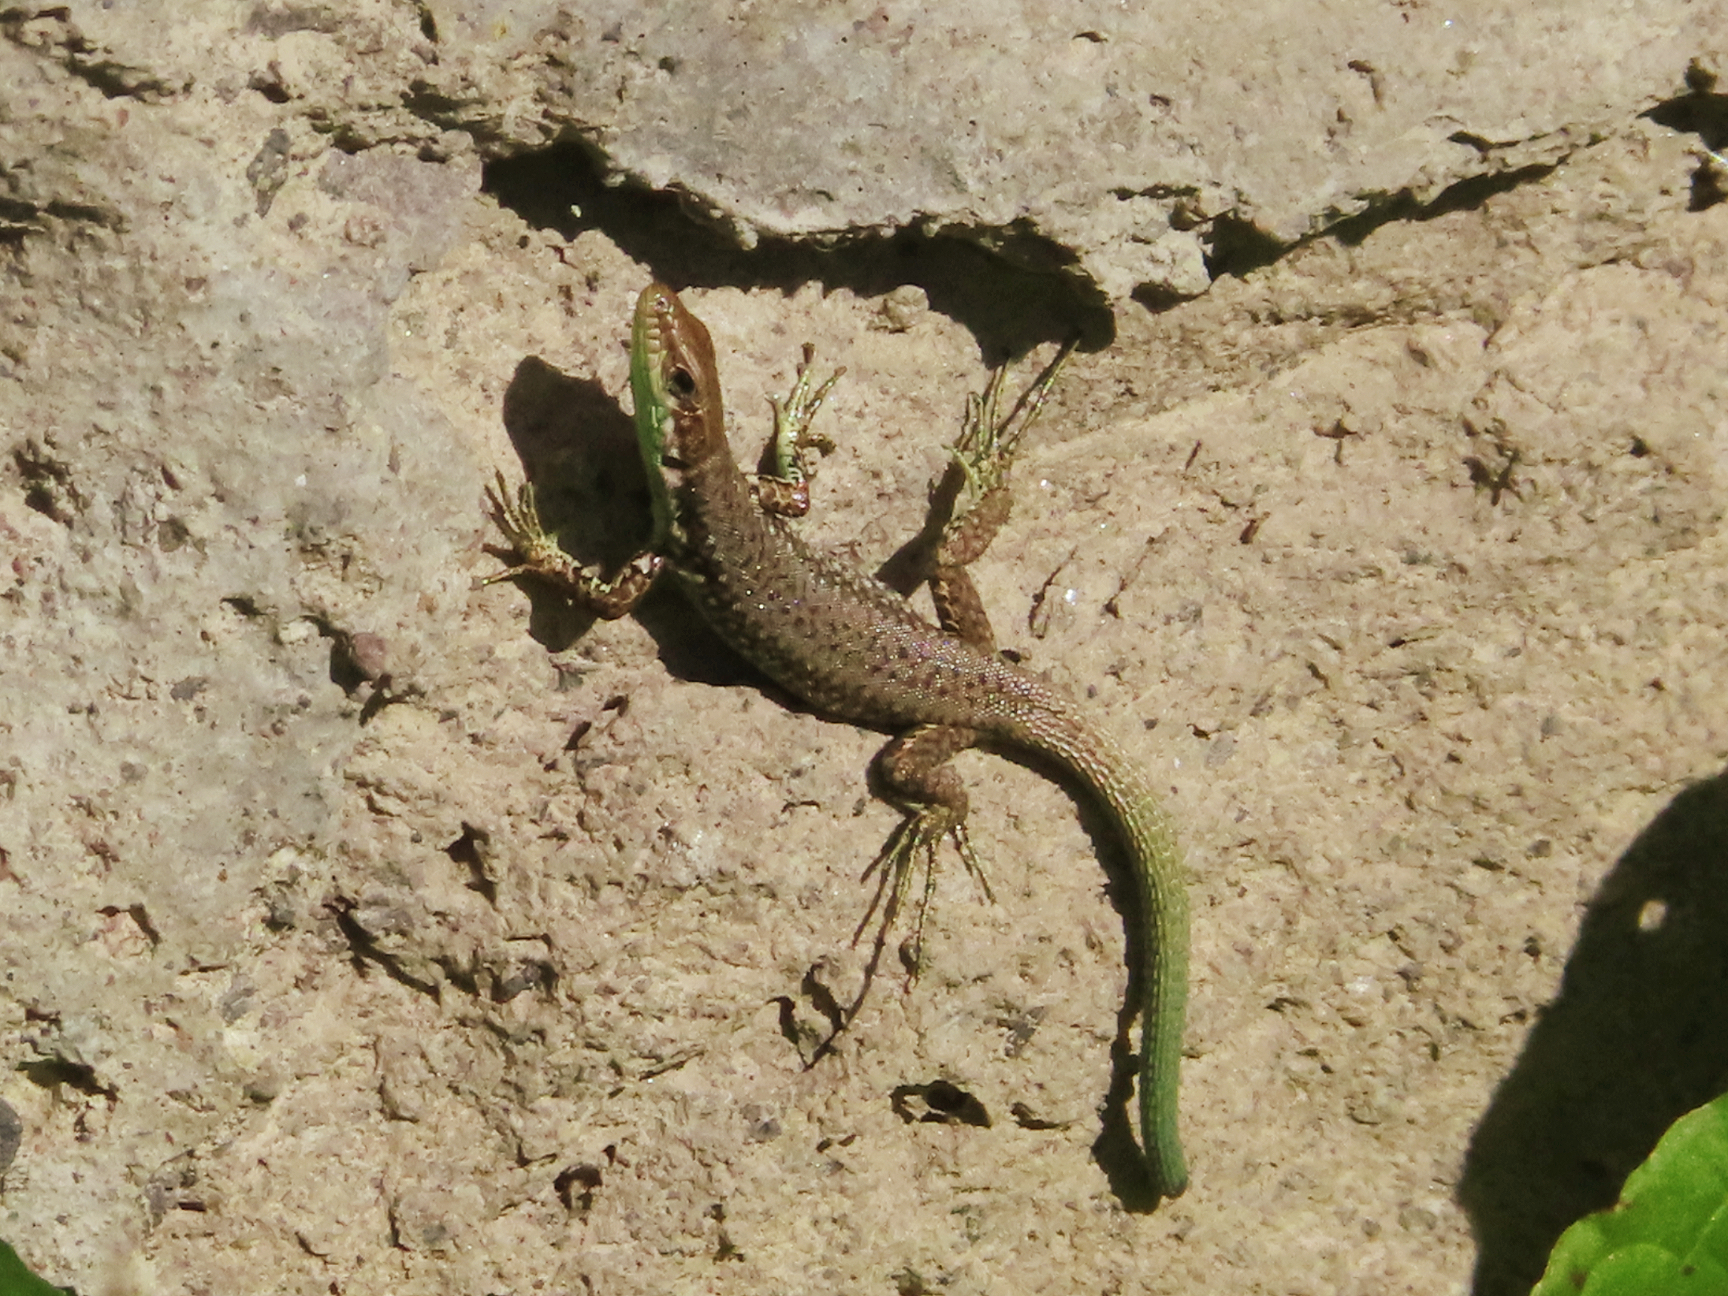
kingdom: Animalia
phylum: Chordata
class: Squamata
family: Lacertidae
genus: Darevskia
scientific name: Darevskia raddei
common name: Radde's lizard
